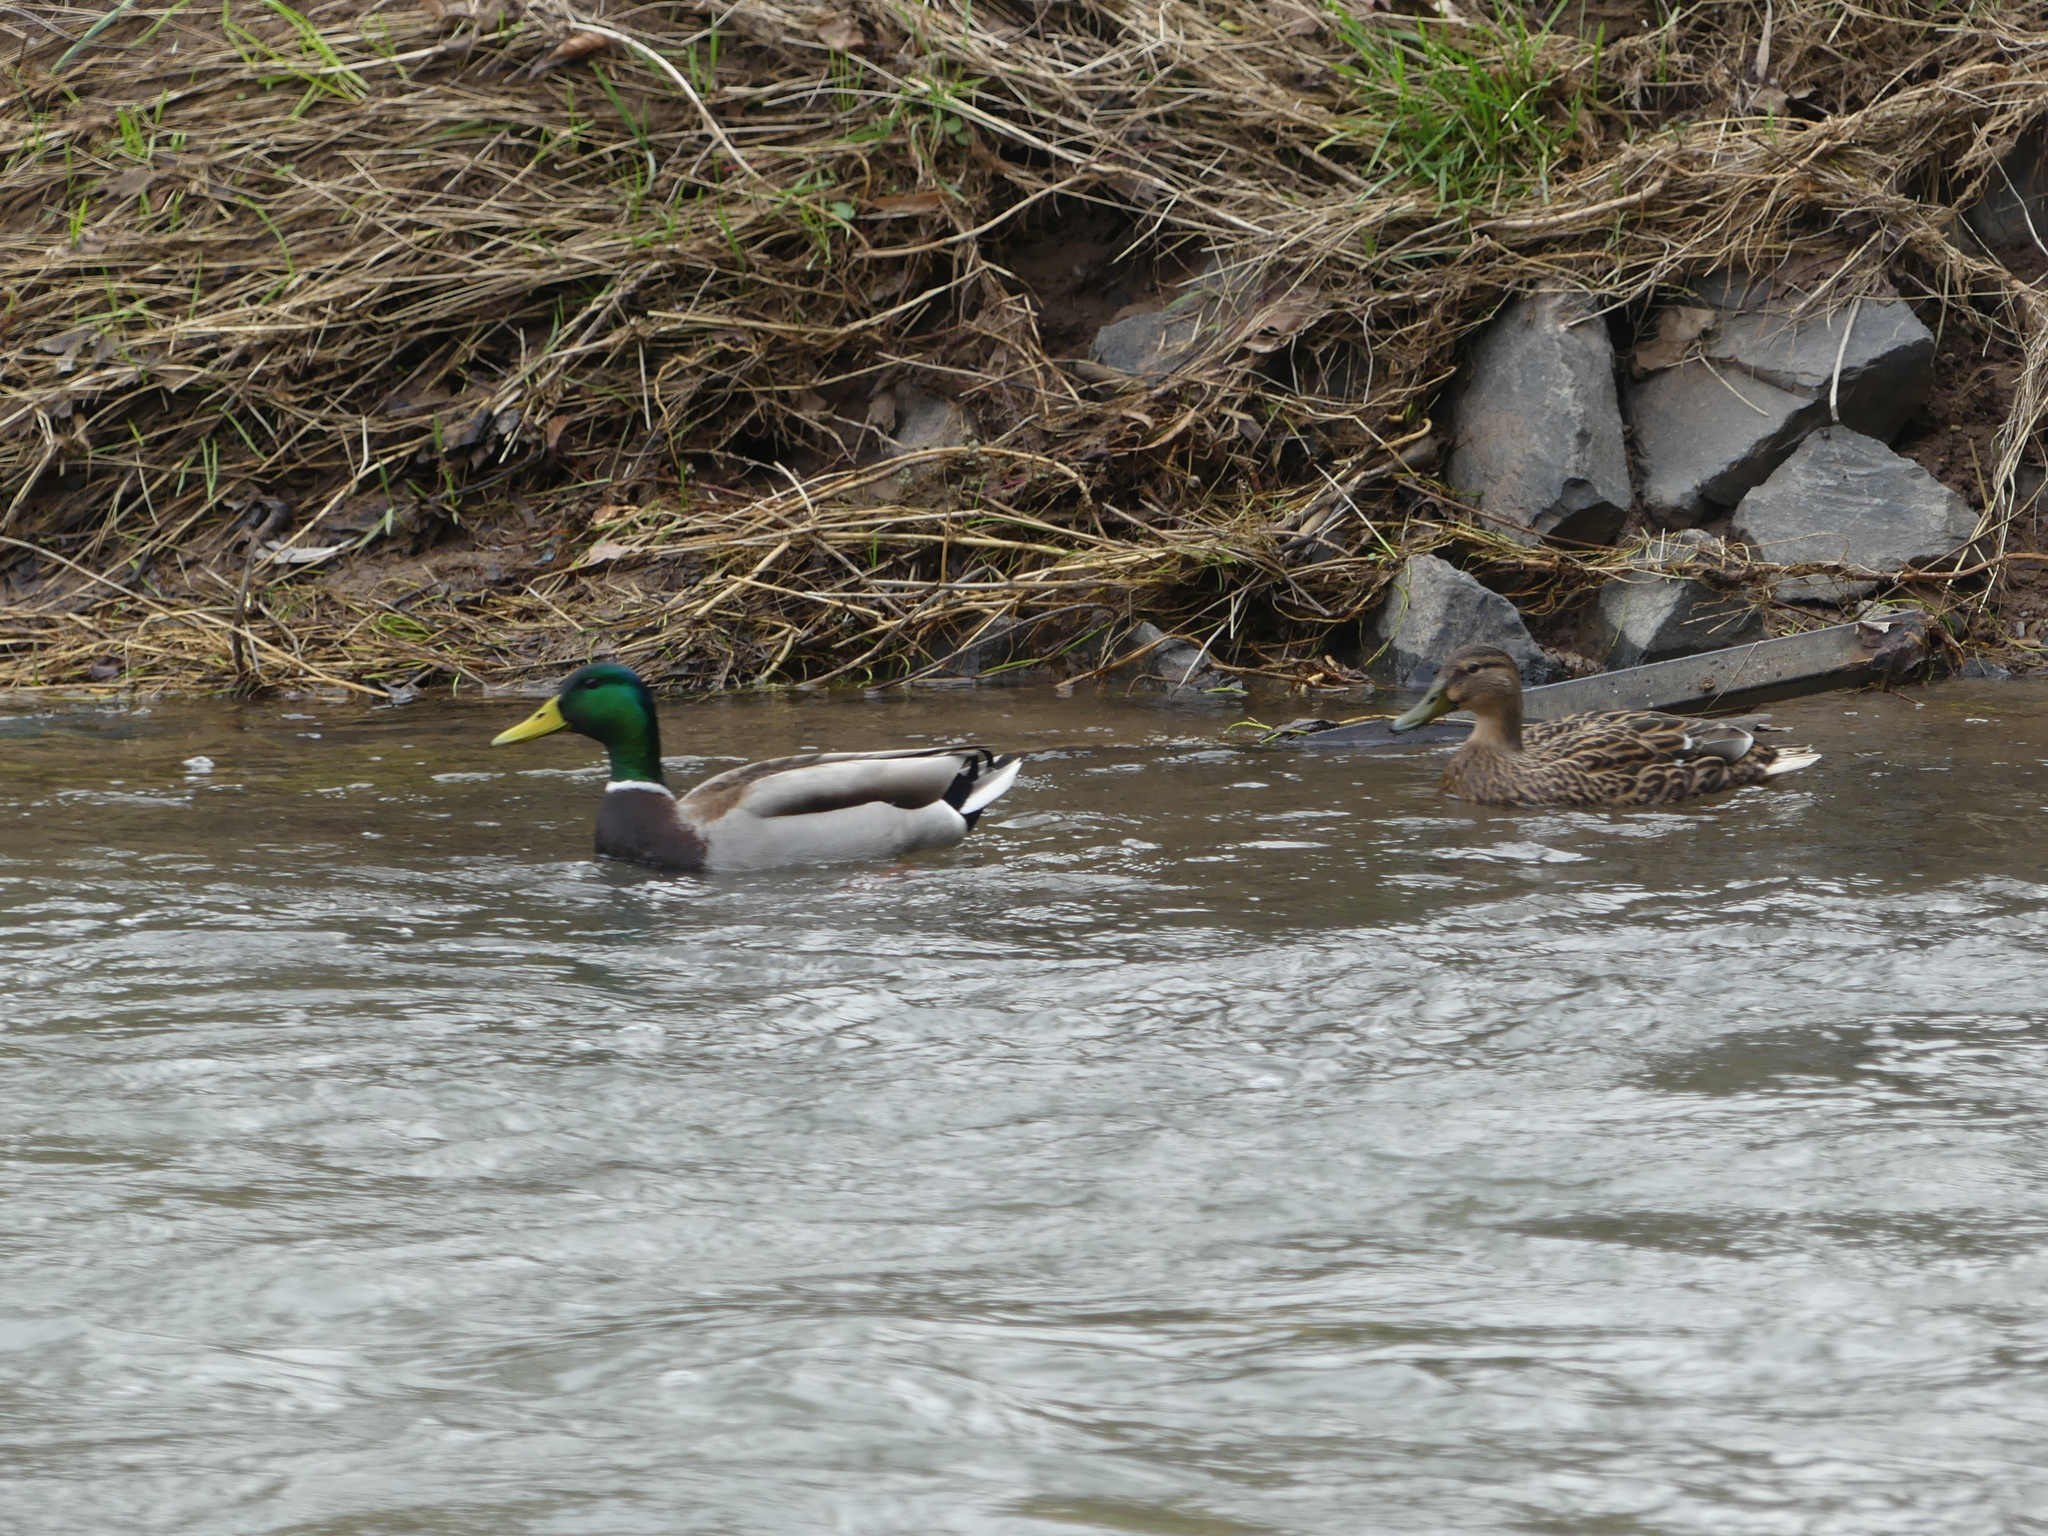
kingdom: Animalia
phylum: Chordata
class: Aves
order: Anseriformes
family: Anatidae
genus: Anas
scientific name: Anas platyrhynchos
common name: Mallard
